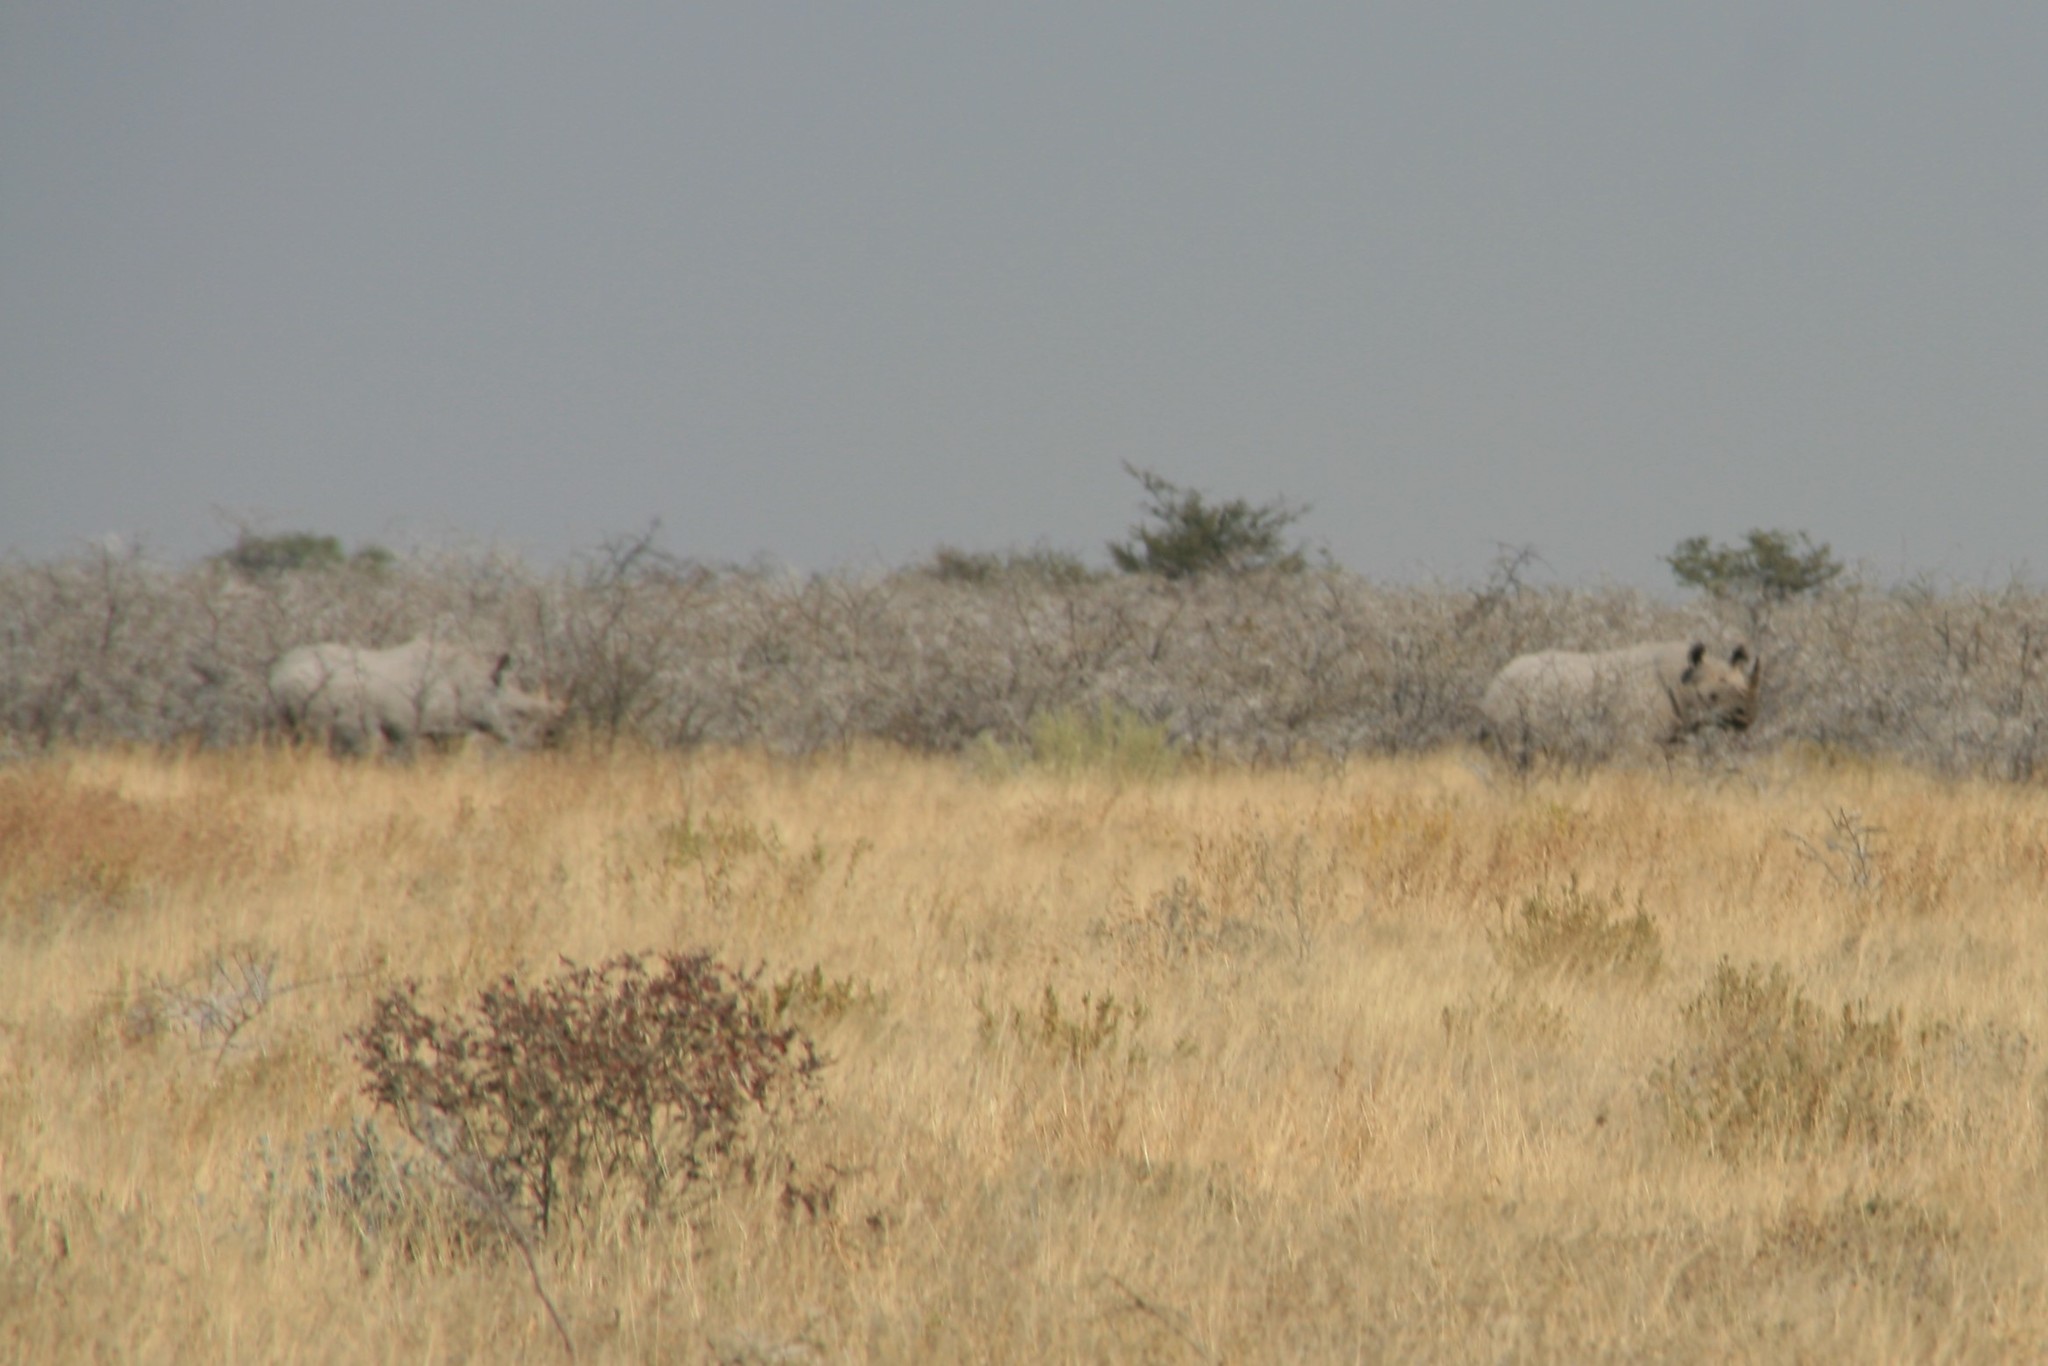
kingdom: Animalia
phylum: Chordata
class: Mammalia
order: Perissodactyla
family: Rhinocerotidae
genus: Diceros
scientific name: Diceros bicornis
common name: Black rhinoceros
